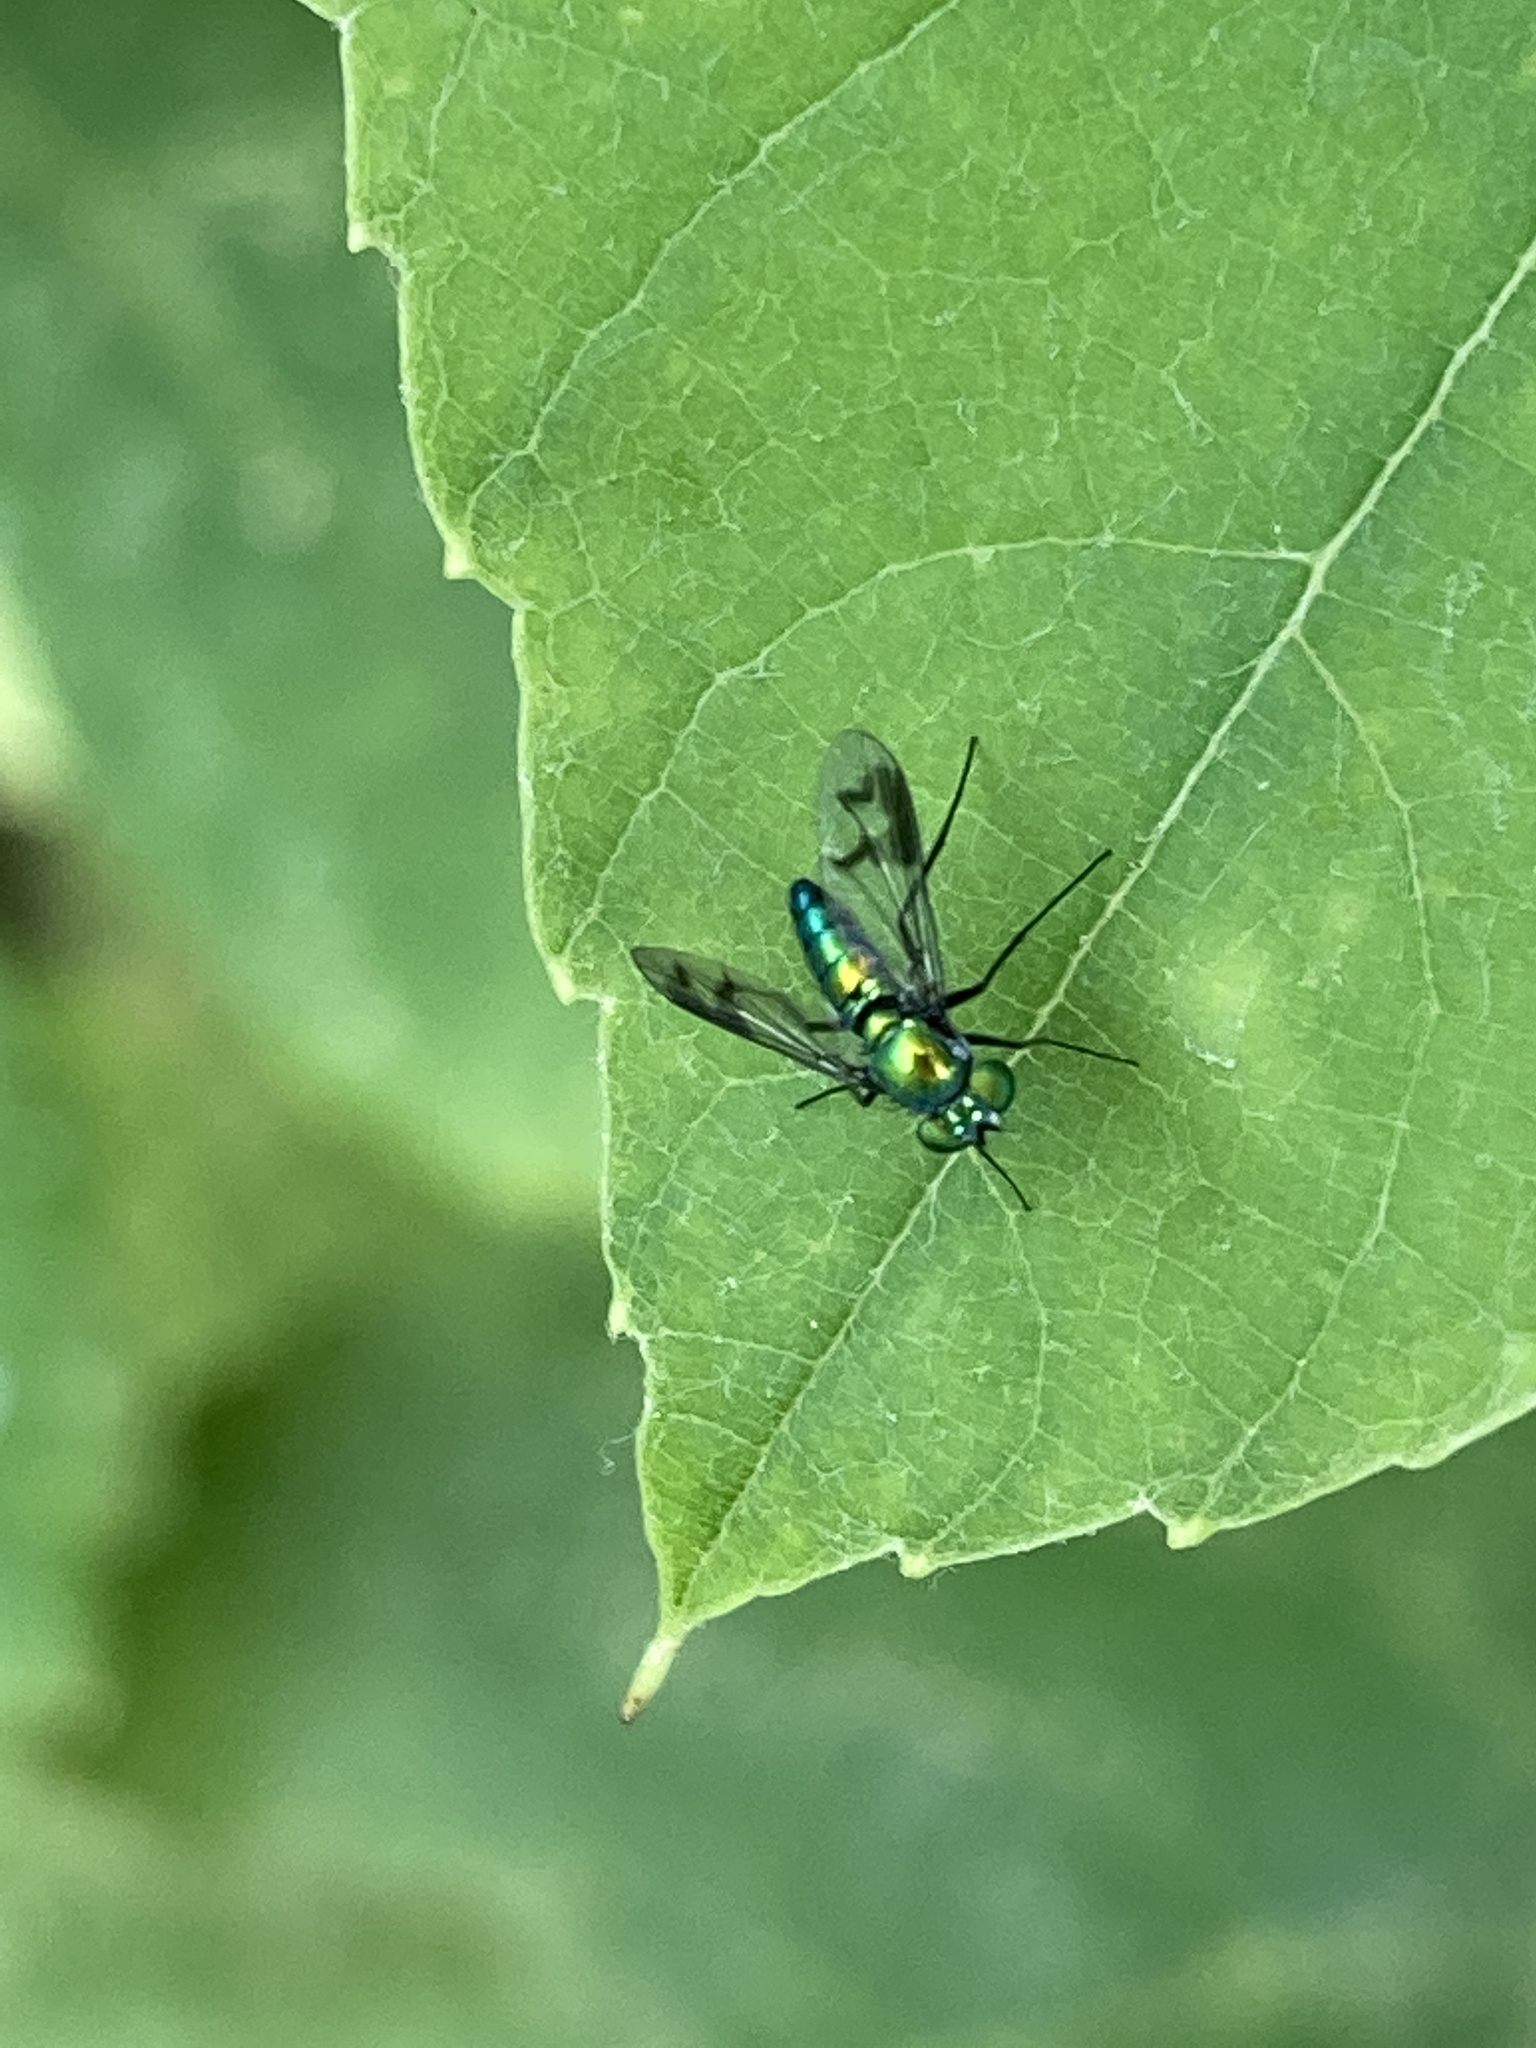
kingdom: Animalia
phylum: Arthropoda
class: Insecta
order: Diptera
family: Dolichopodidae
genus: Condylostylus
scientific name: Condylostylus patibulatus
